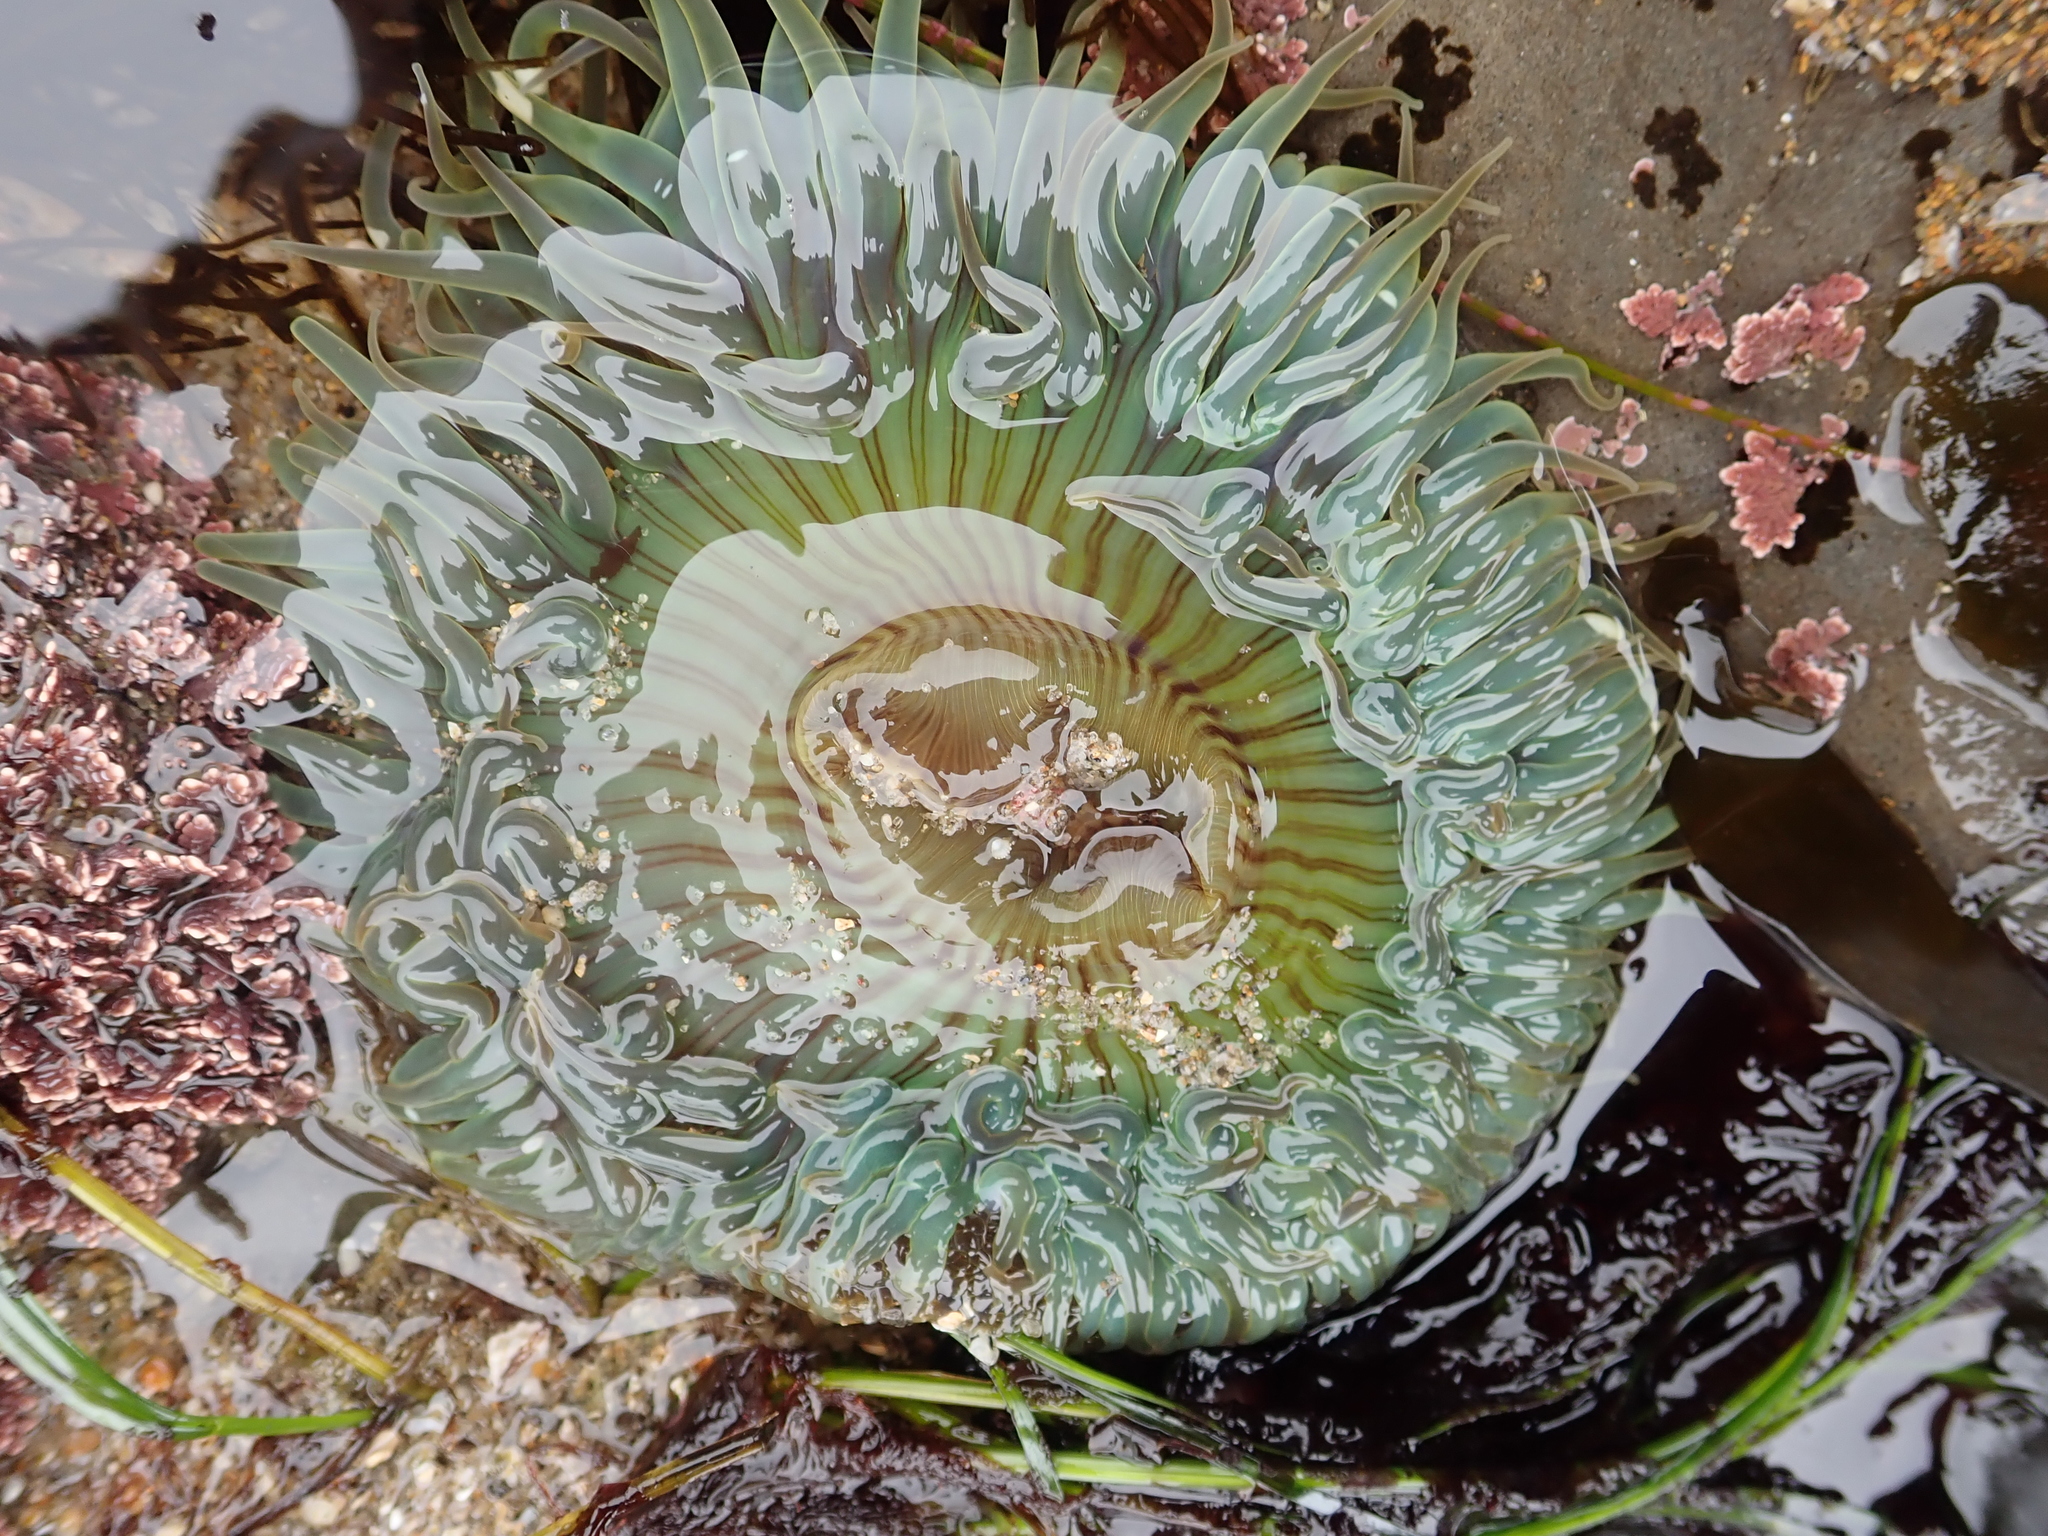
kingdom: Animalia
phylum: Cnidaria
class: Anthozoa
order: Actiniaria
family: Actiniidae
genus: Anthopleura
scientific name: Anthopleura sola
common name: Sun anemone
